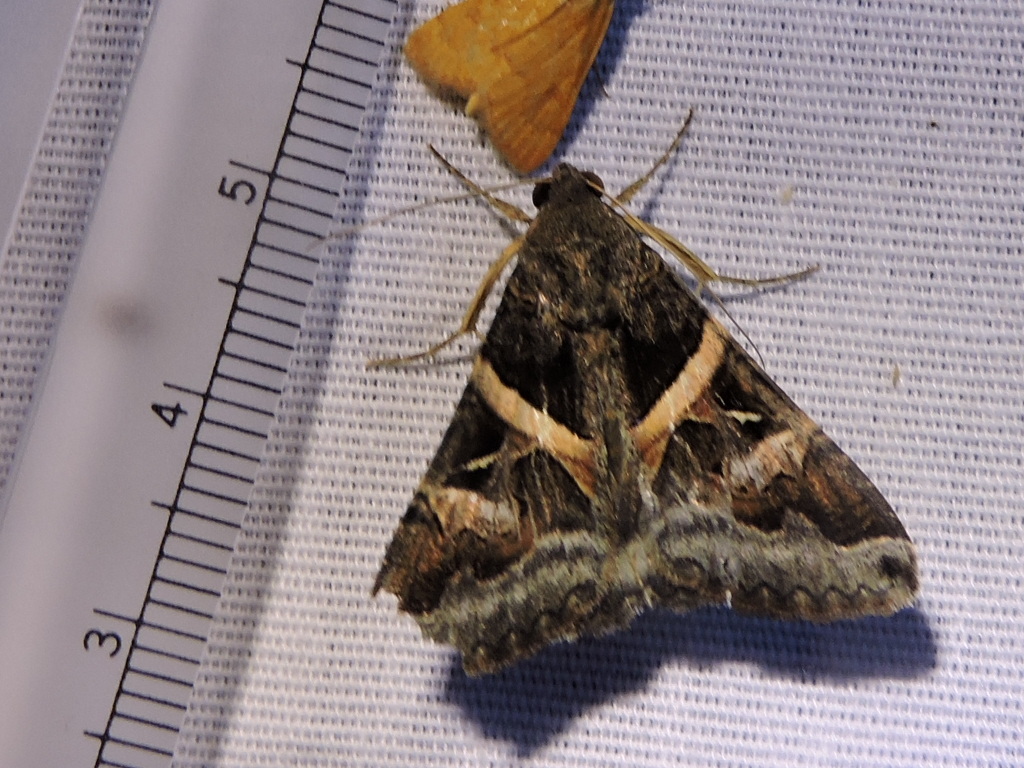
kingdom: Animalia
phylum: Arthropoda
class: Insecta
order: Lepidoptera
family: Erebidae
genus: Melipotis
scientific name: Melipotis indomita
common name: Moth
